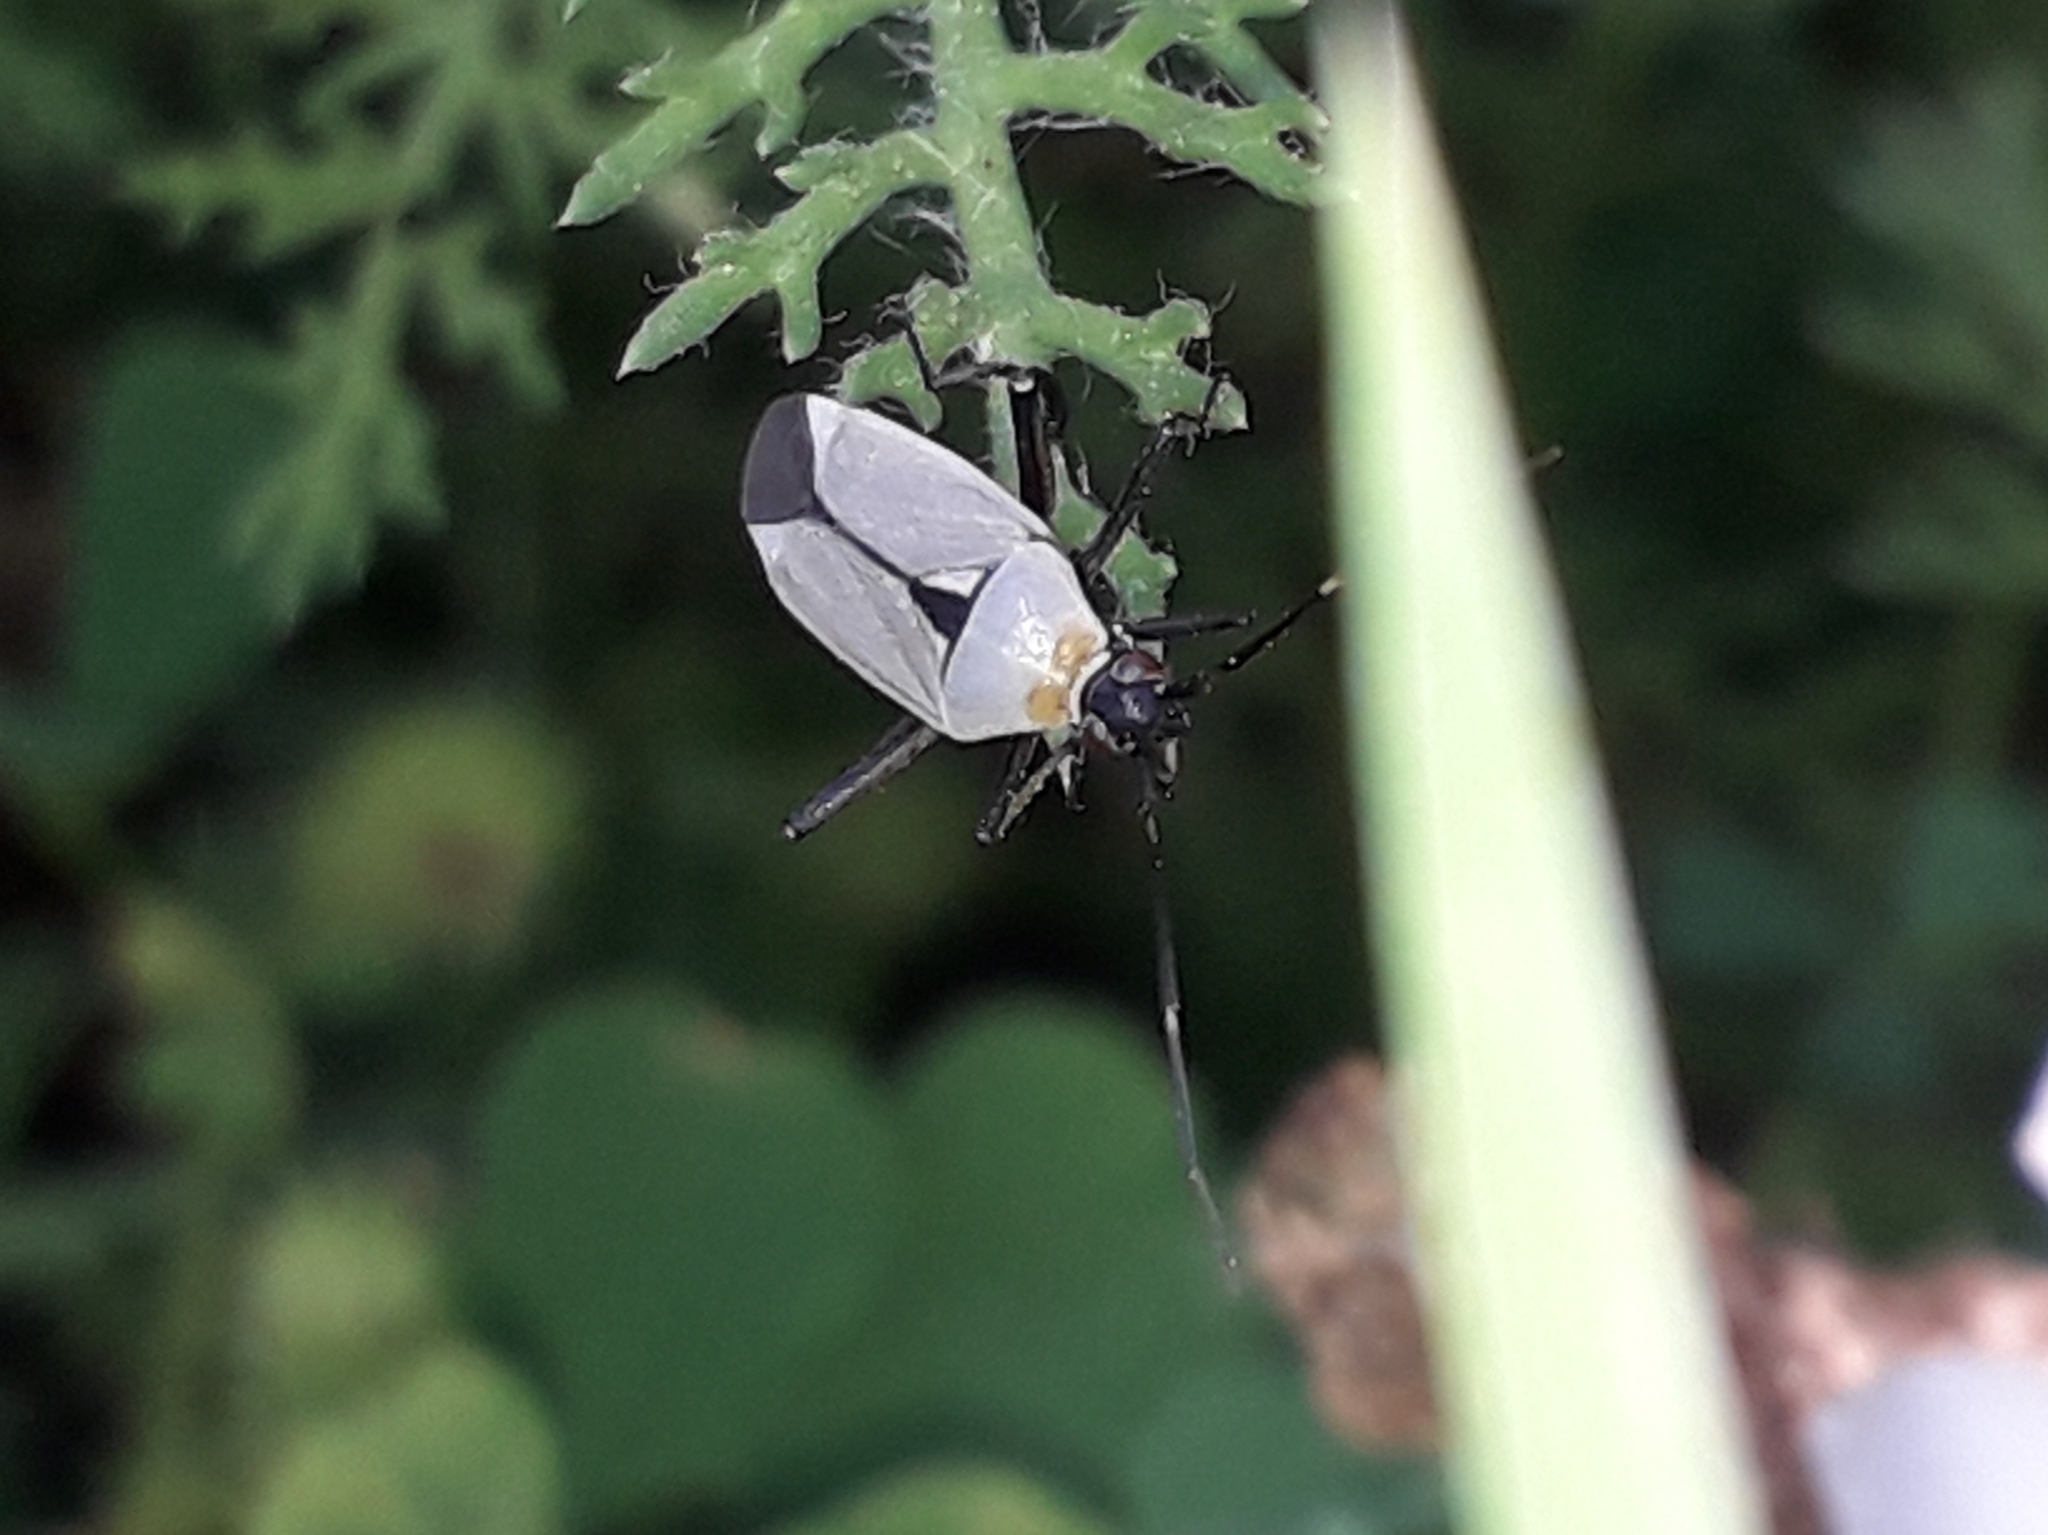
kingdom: Animalia
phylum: Arthropoda
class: Insecta
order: Hemiptera
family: Miridae
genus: Calocoris
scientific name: Calocoris nemoralis
